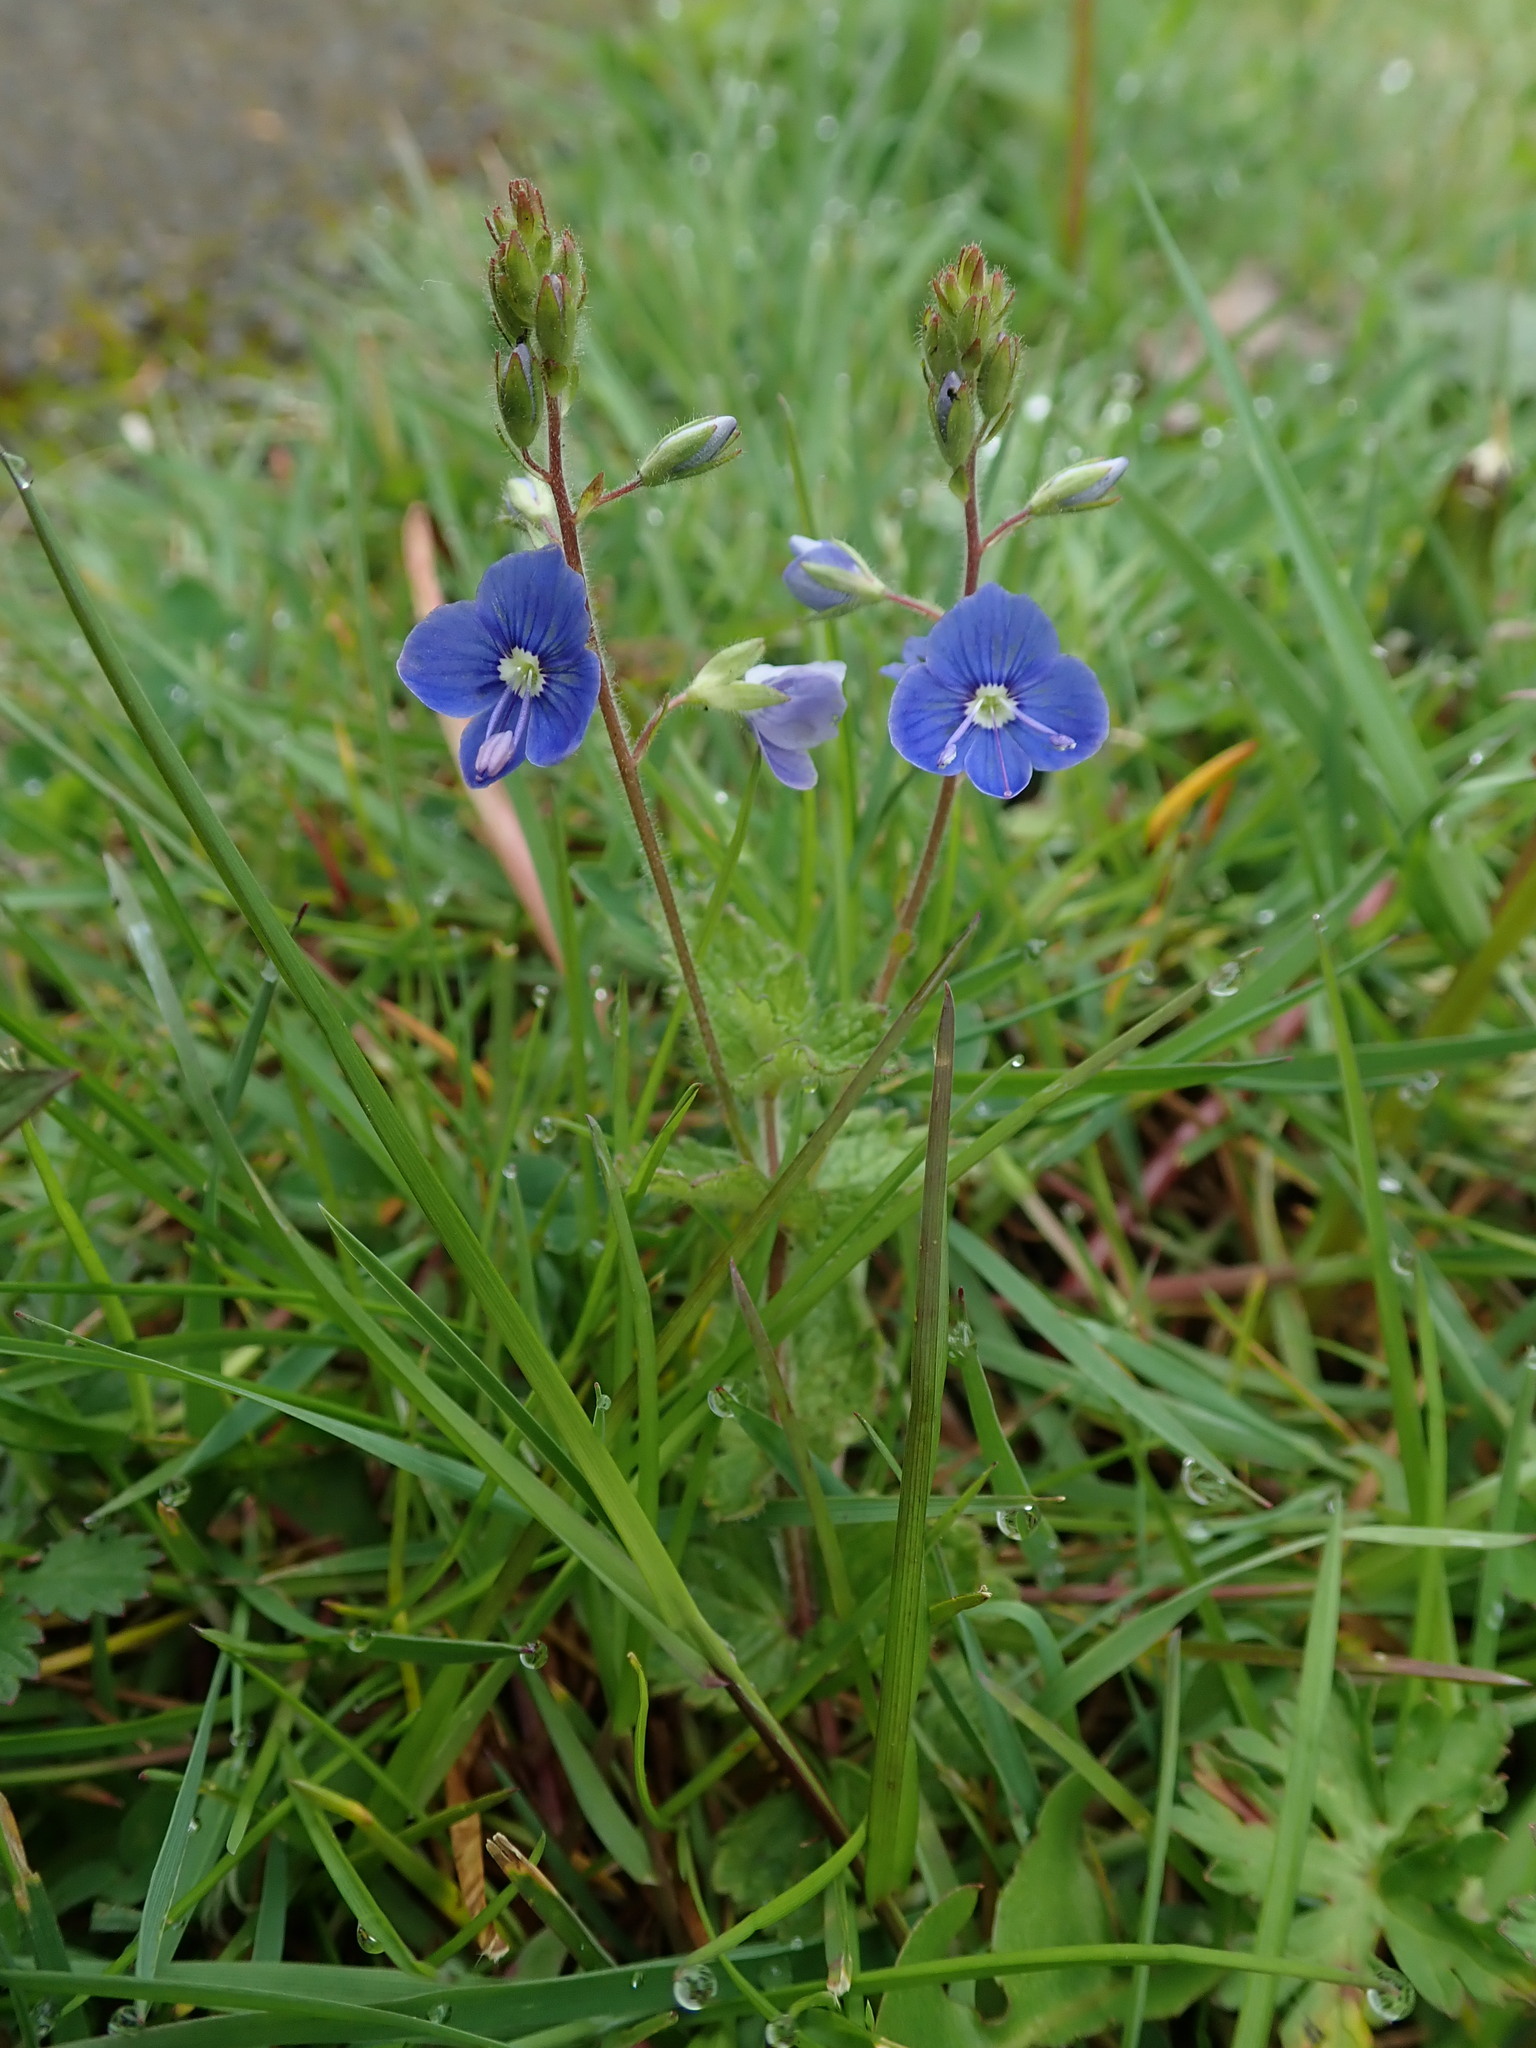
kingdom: Plantae
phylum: Tracheophyta
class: Magnoliopsida
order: Lamiales
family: Plantaginaceae
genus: Veronica
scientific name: Veronica chamaedrys
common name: Germander speedwell
